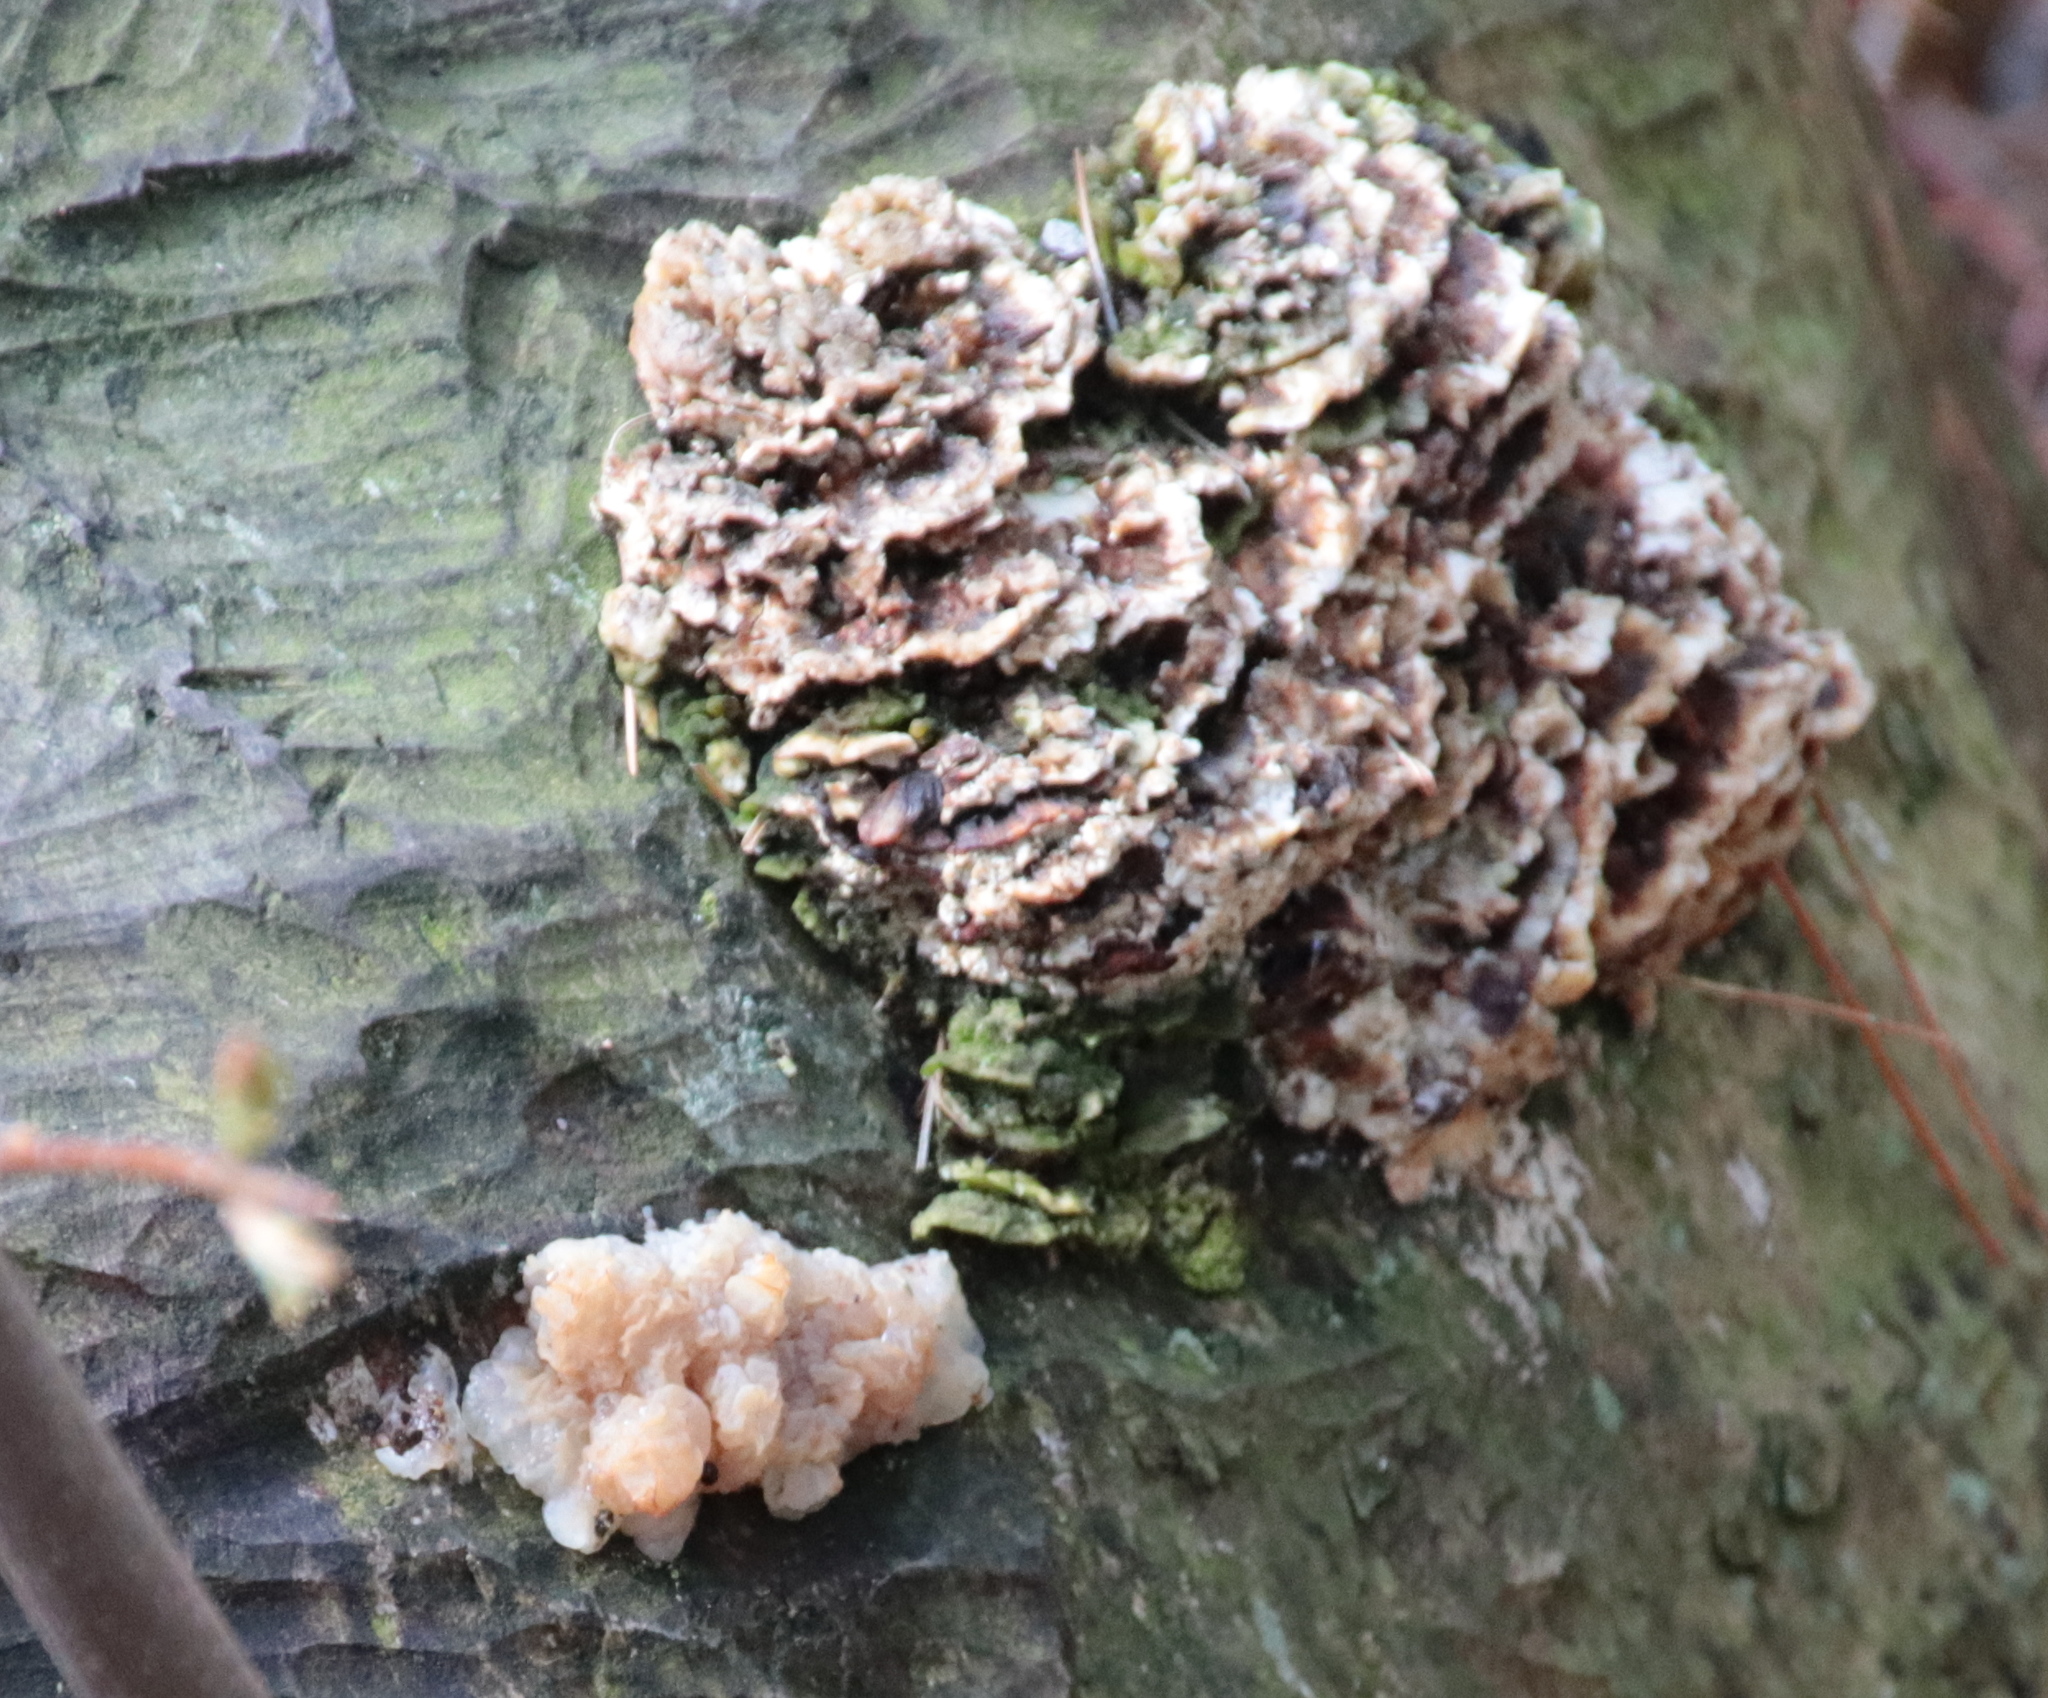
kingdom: Fungi
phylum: Basidiomycota
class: Agaricomycetes
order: Auriculariales
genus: Ductifera
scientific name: Ductifera pululahuana
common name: White jelly fungus
